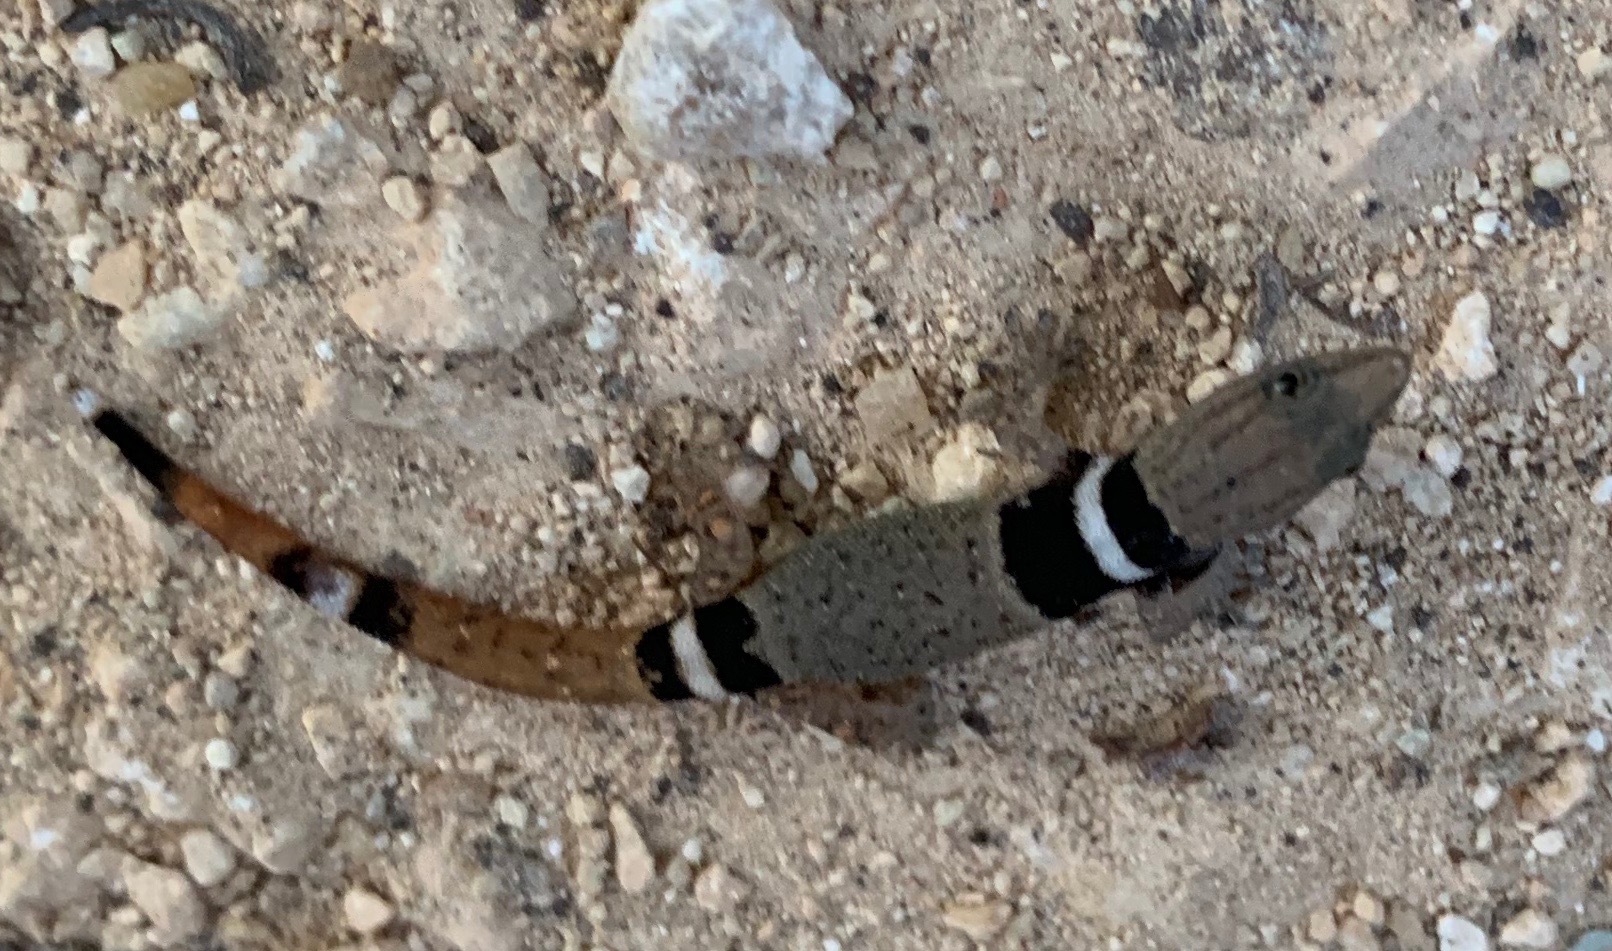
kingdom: Animalia
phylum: Chordata
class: Squamata
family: Sphaerodactylidae
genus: Sphaerodactylus
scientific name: Sphaerodactylus glaucus
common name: Central american collared geckolet
